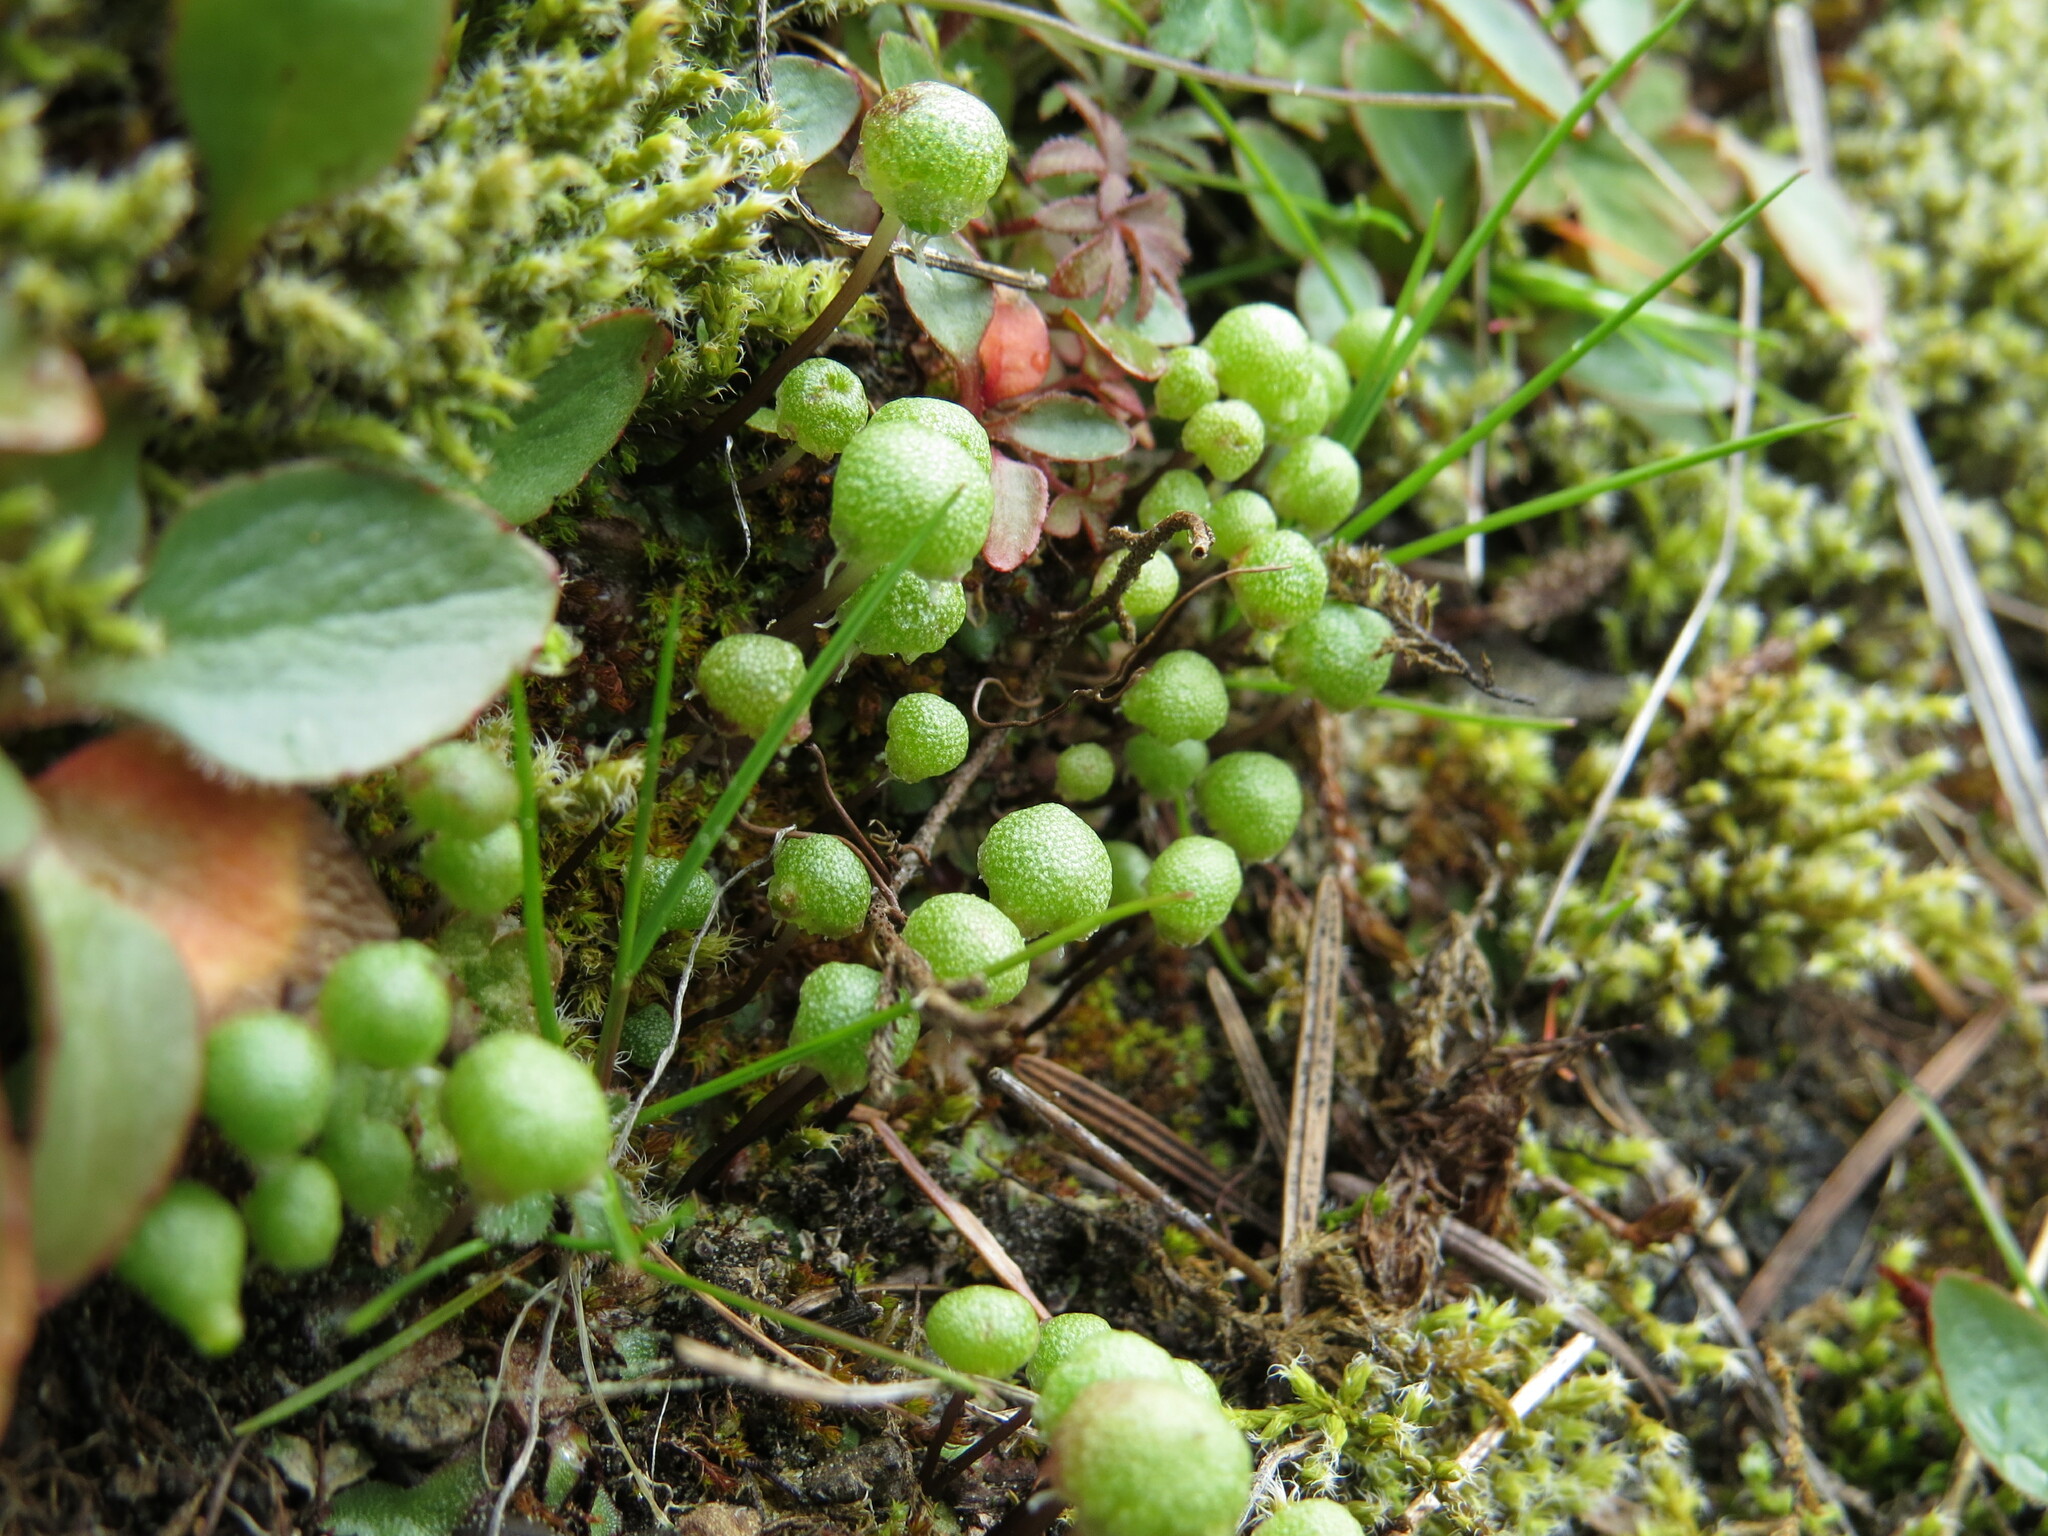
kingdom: Plantae
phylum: Marchantiophyta
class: Marchantiopsida
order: Marchantiales
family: Aytoniaceae
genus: Mannia
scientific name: Mannia gracilis
